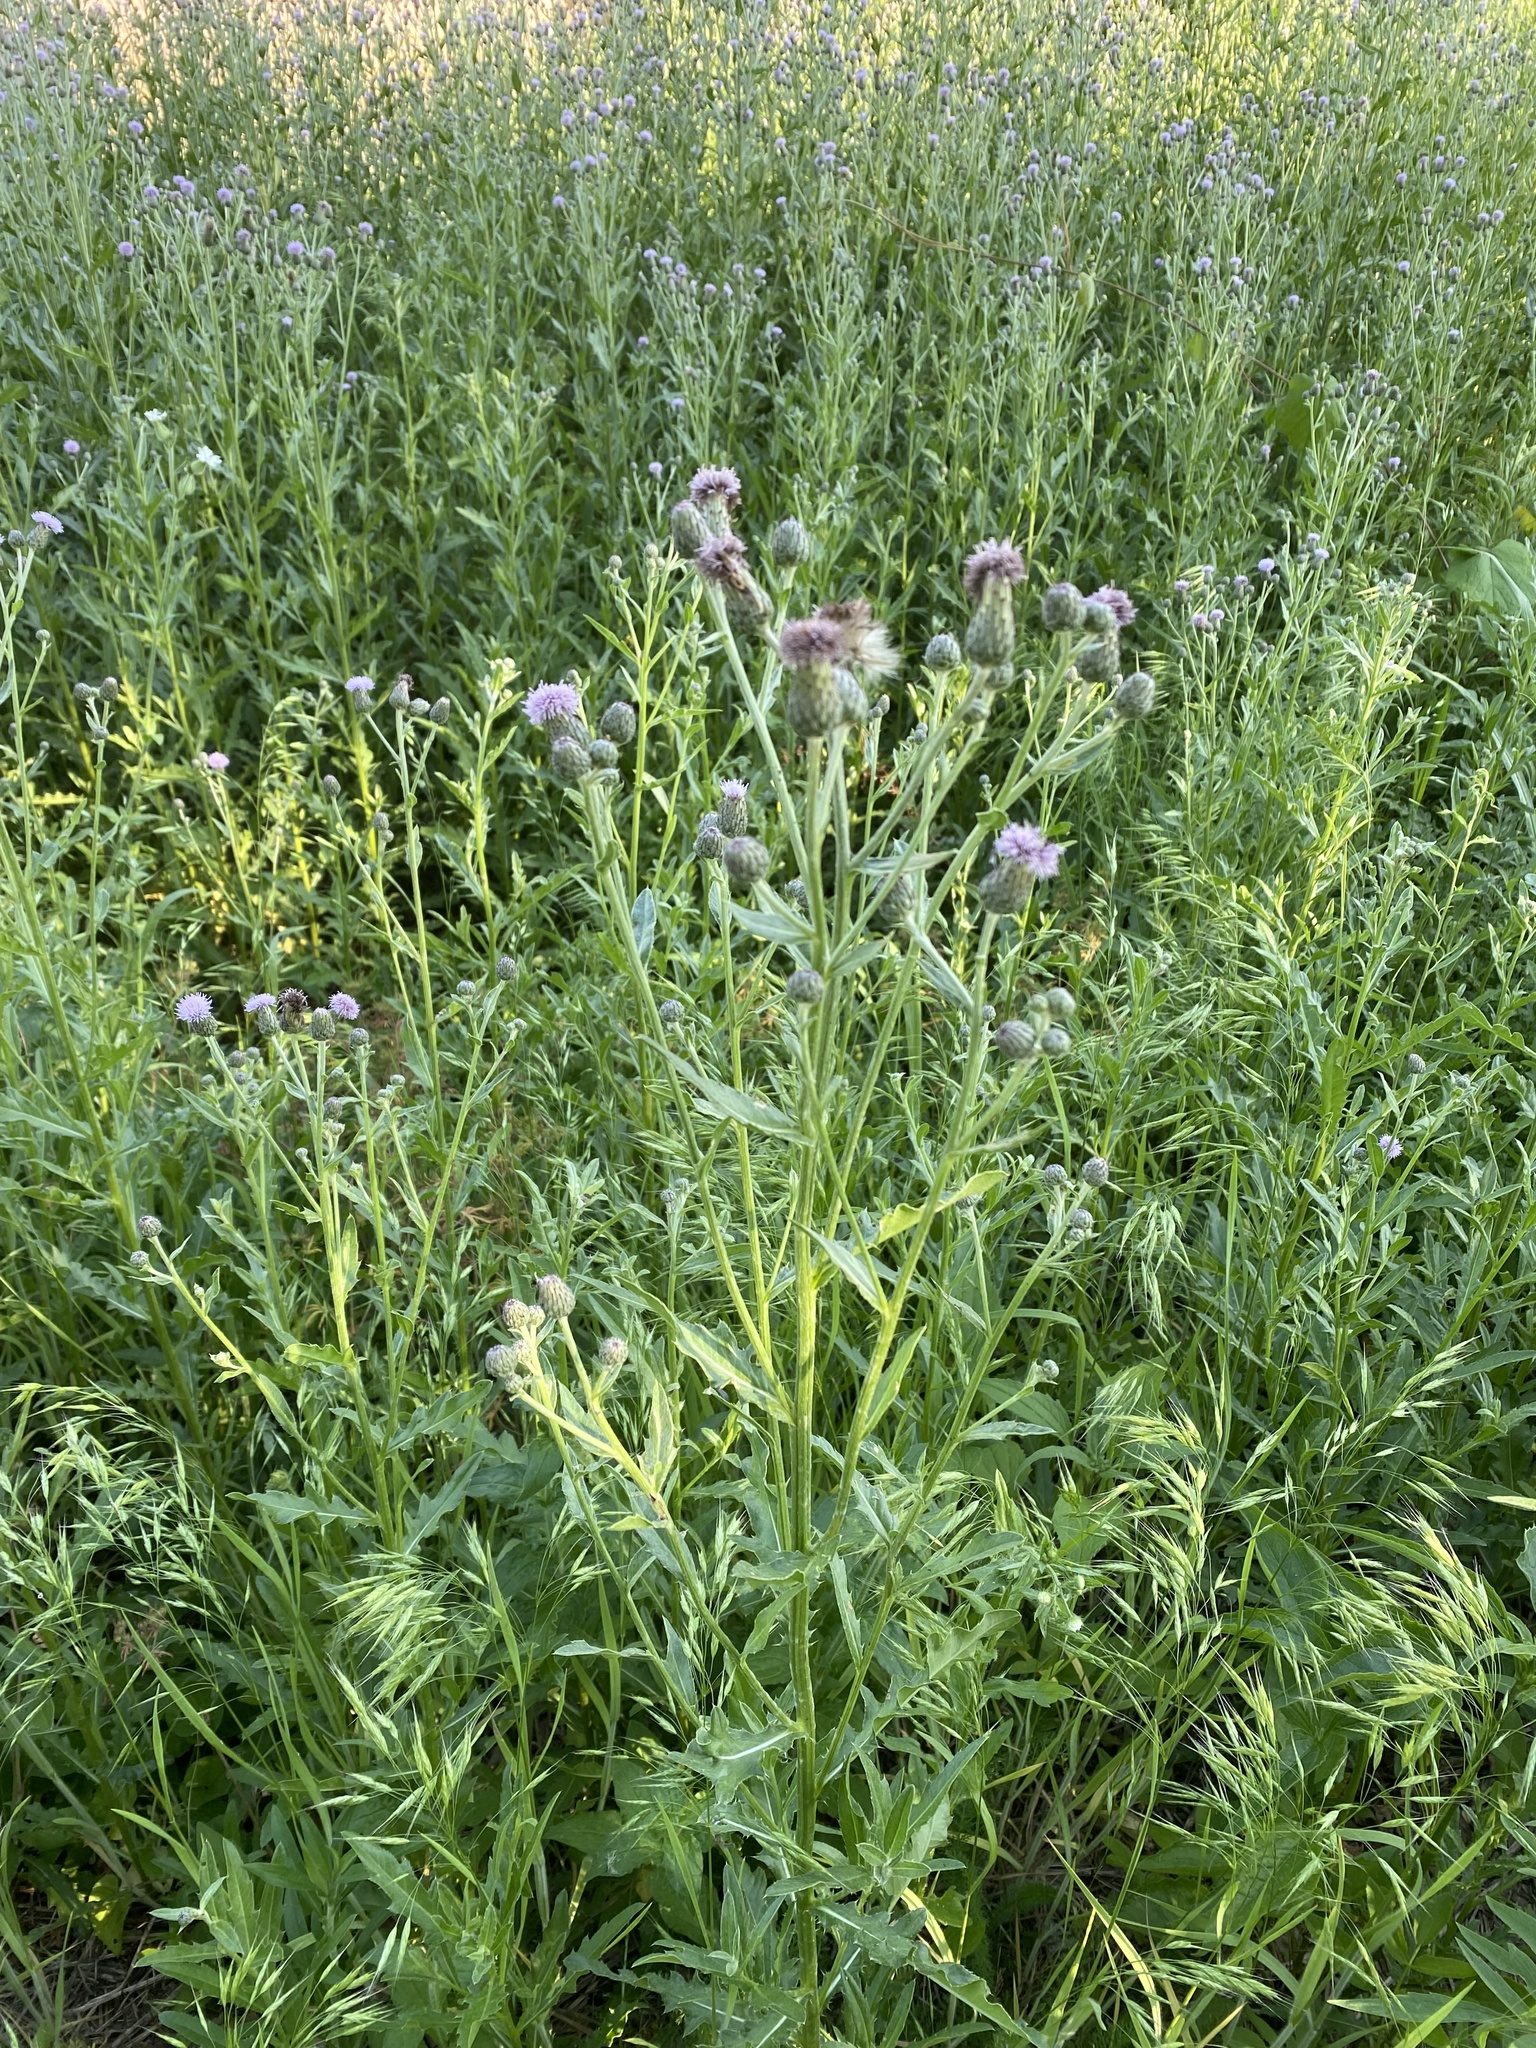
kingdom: Plantae
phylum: Tracheophyta
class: Magnoliopsida
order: Asterales
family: Asteraceae
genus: Cirsium
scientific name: Cirsium arvense
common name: Creeping thistle
